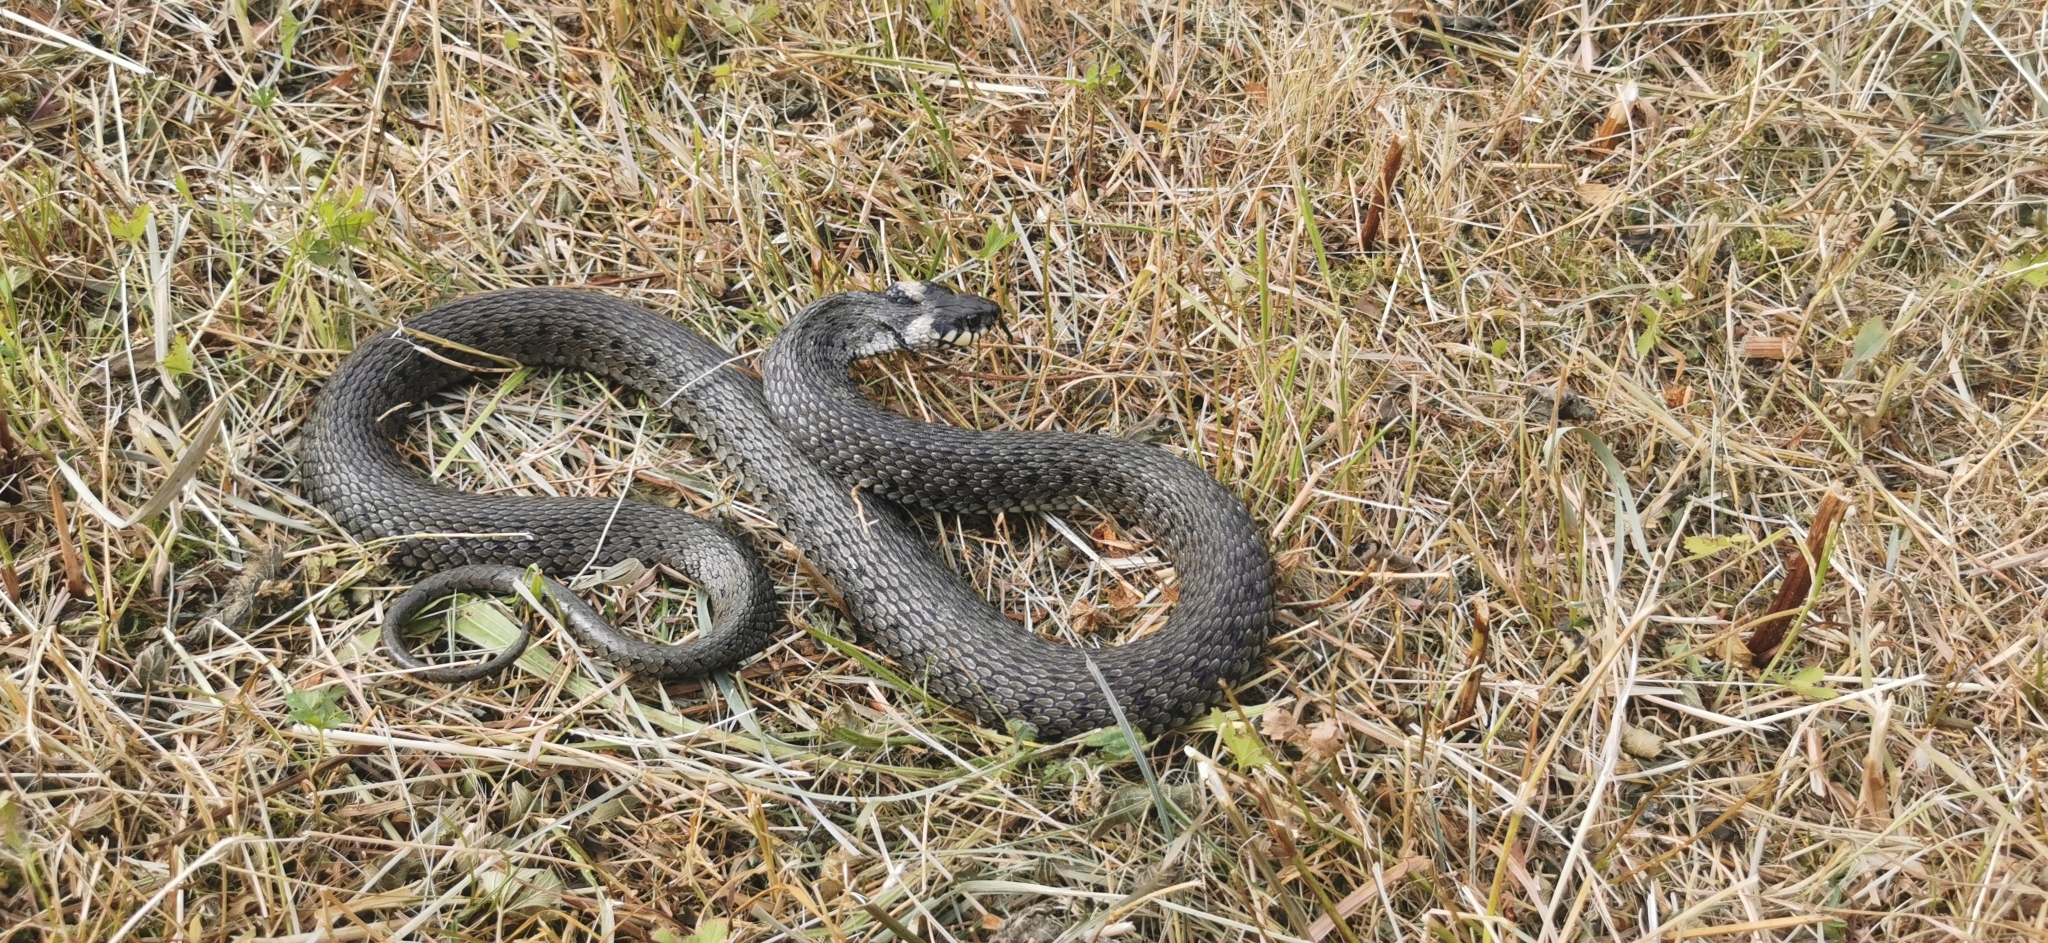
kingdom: Animalia
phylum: Chordata
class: Squamata
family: Colubridae
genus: Natrix
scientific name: Natrix natrix
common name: Grass snake
